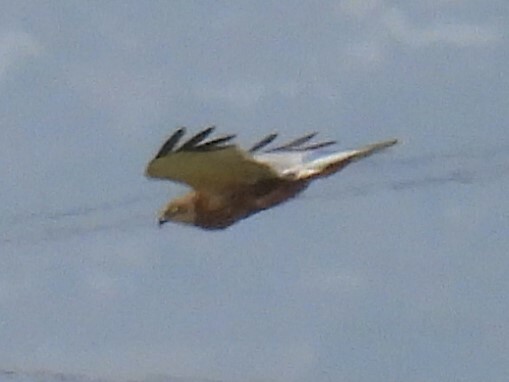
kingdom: Animalia
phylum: Chordata
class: Aves
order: Accipitriformes
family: Accipitridae
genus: Circus
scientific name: Circus aeruginosus
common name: Western marsh harrier
